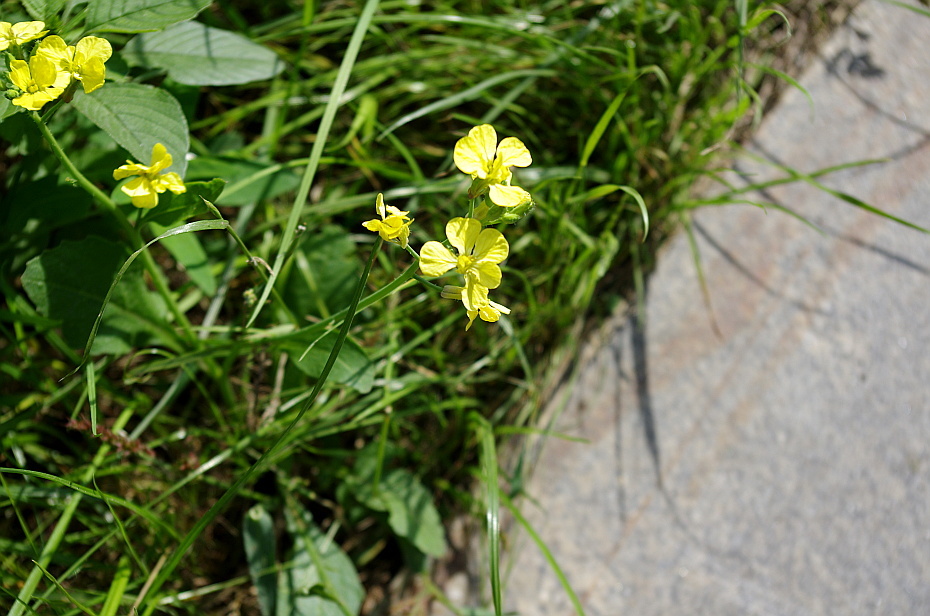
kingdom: Plantae
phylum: Tracheophyta
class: Magnoliopsida
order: Brassicales
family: Brassicaceae
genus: Raphanus
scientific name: Raphanus raphanistrum
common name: Wild radish
